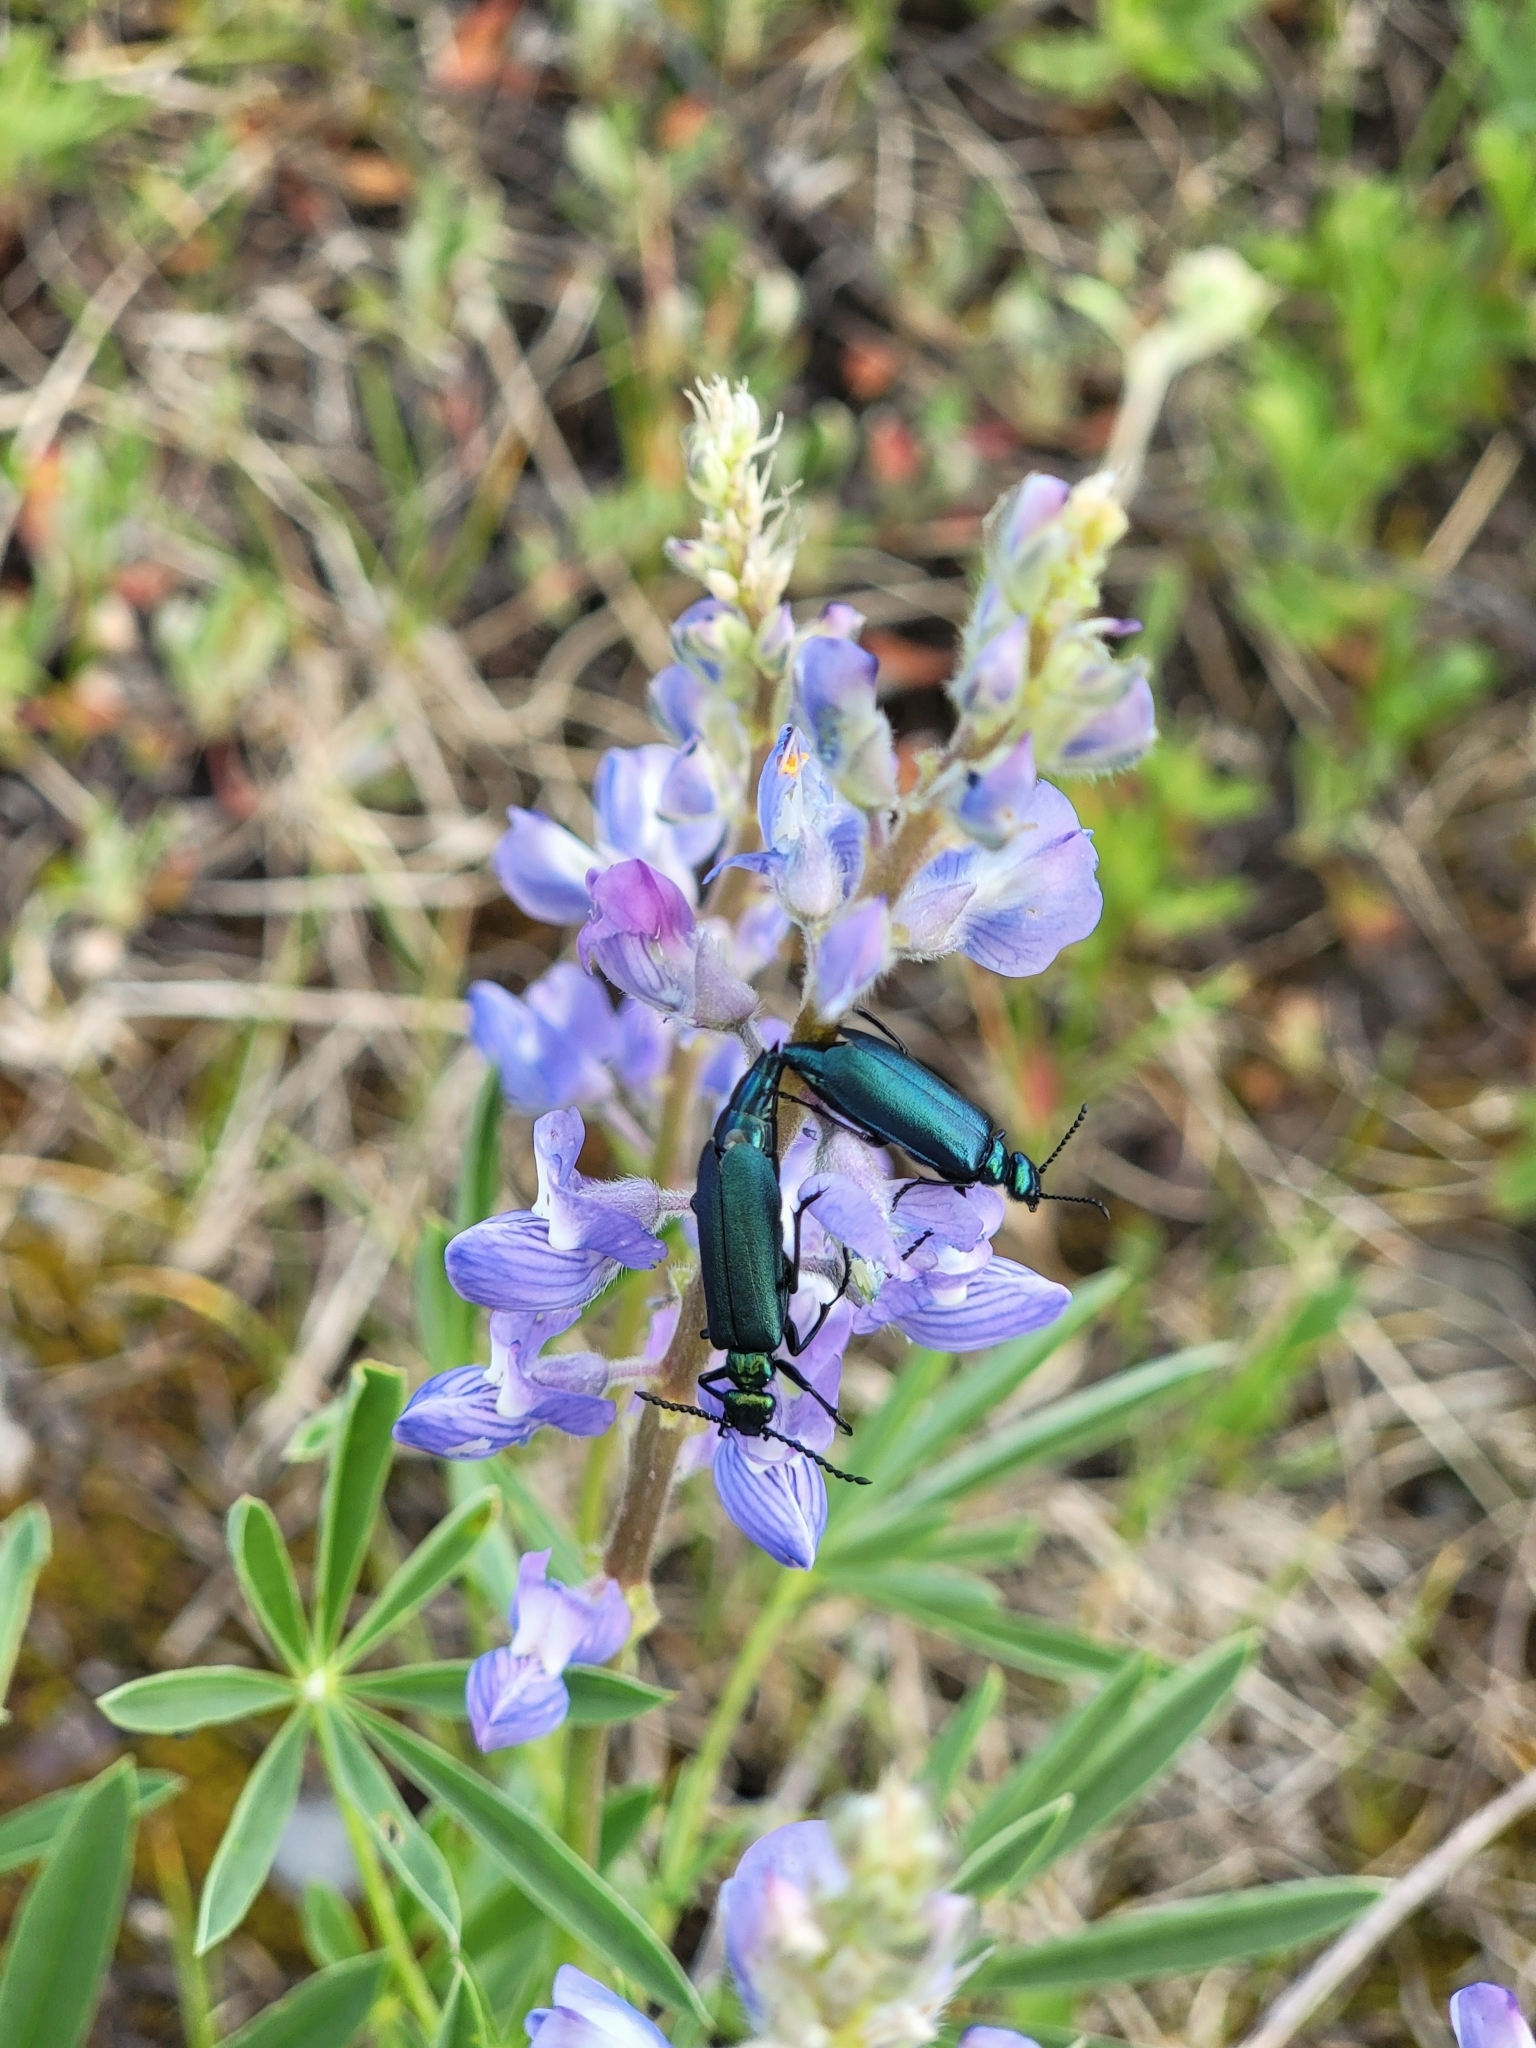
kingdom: Animalia
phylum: Arthropoda
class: Insecta
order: Coleoptera
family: Meloidae
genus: Lytta
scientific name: Lytta stygica
